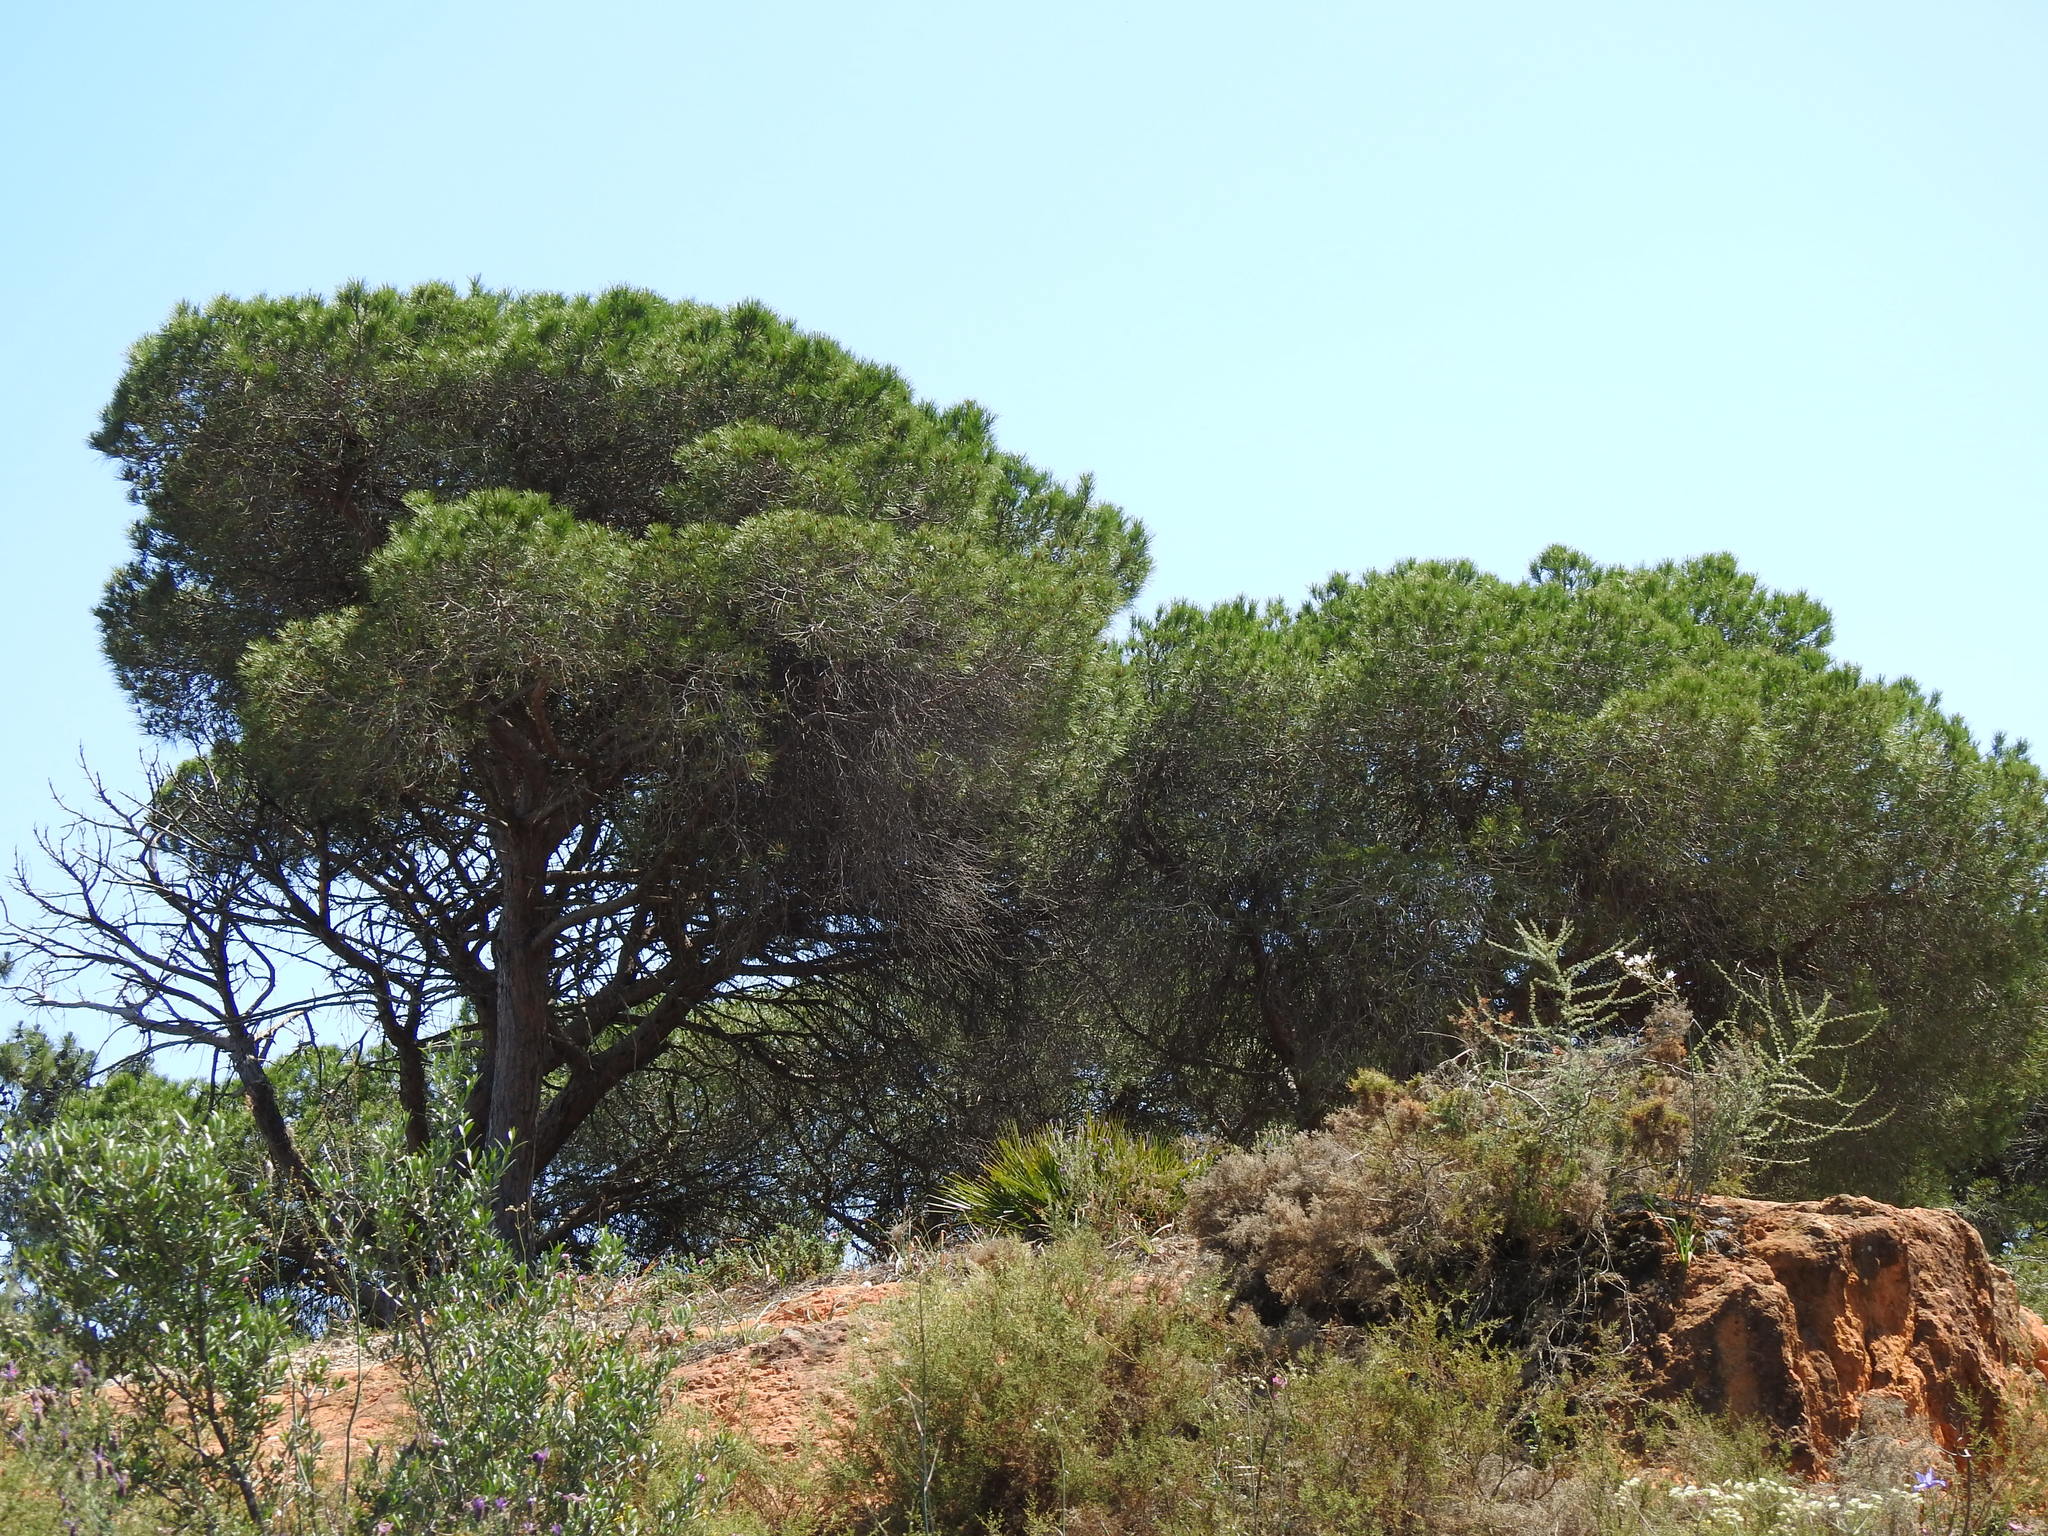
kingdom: Plantae
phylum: Tracheophyta
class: Pinopsida
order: Pinales
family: Pinaceae
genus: Pinus
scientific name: Pinus pinea
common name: Italian stone pine
